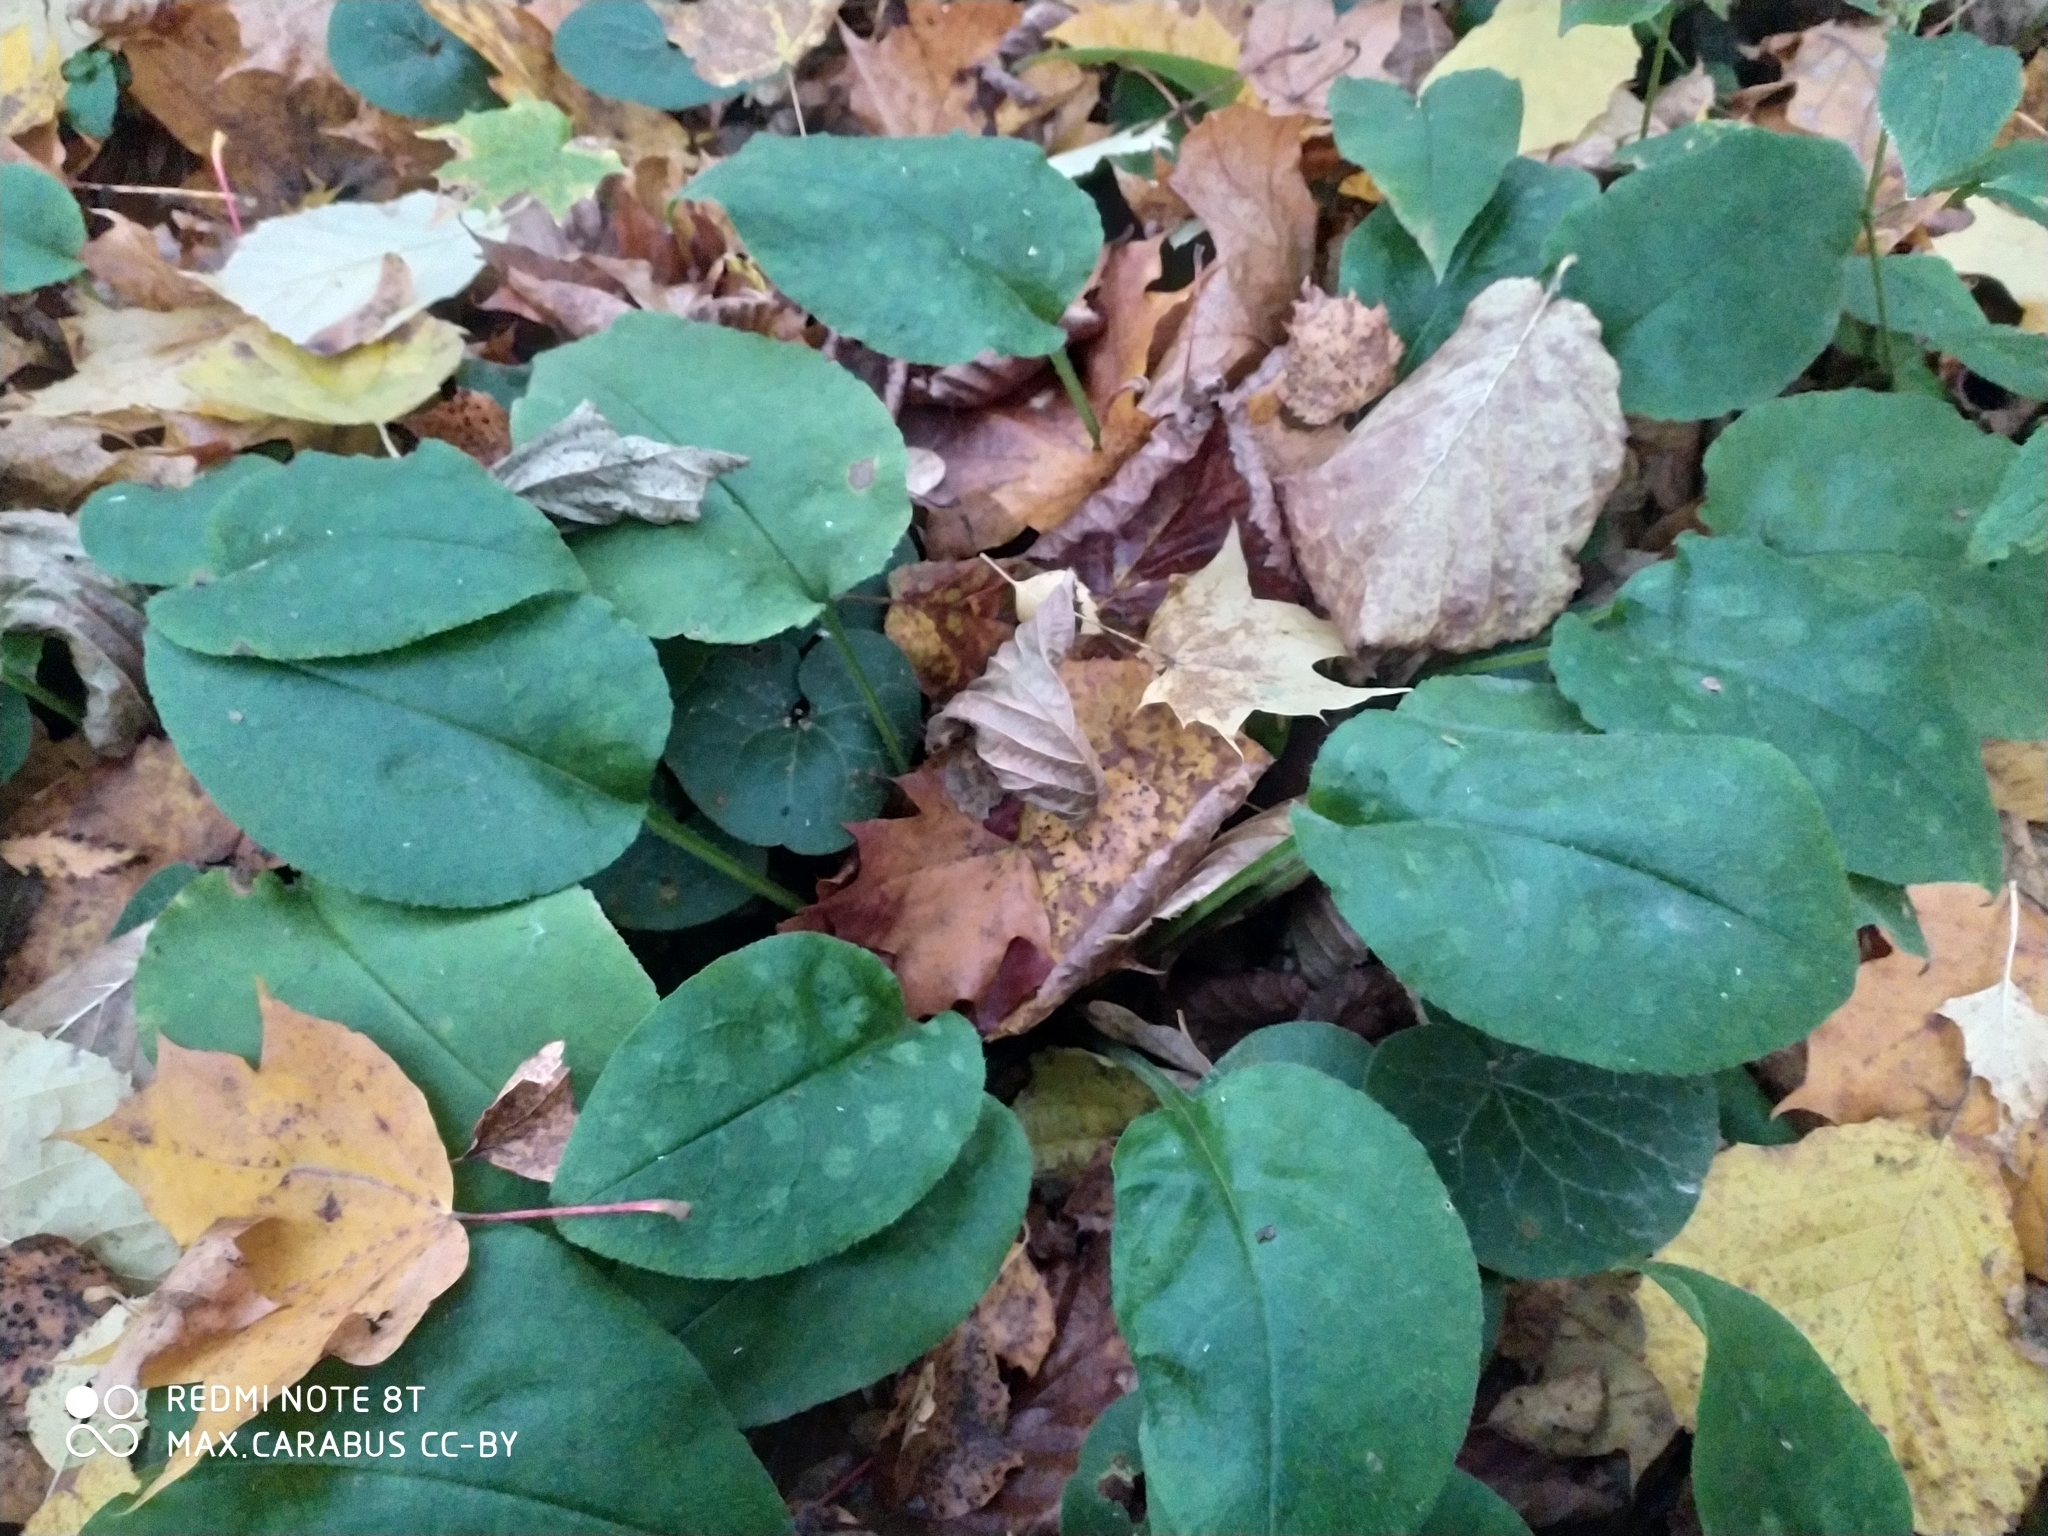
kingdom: Plantae
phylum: Tracheophyta
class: Magnoliopsida
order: Boraginales
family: Boraginaceae
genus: Pulmonaria
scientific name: Pulmonaria obscura
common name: Suffolk lungwort
